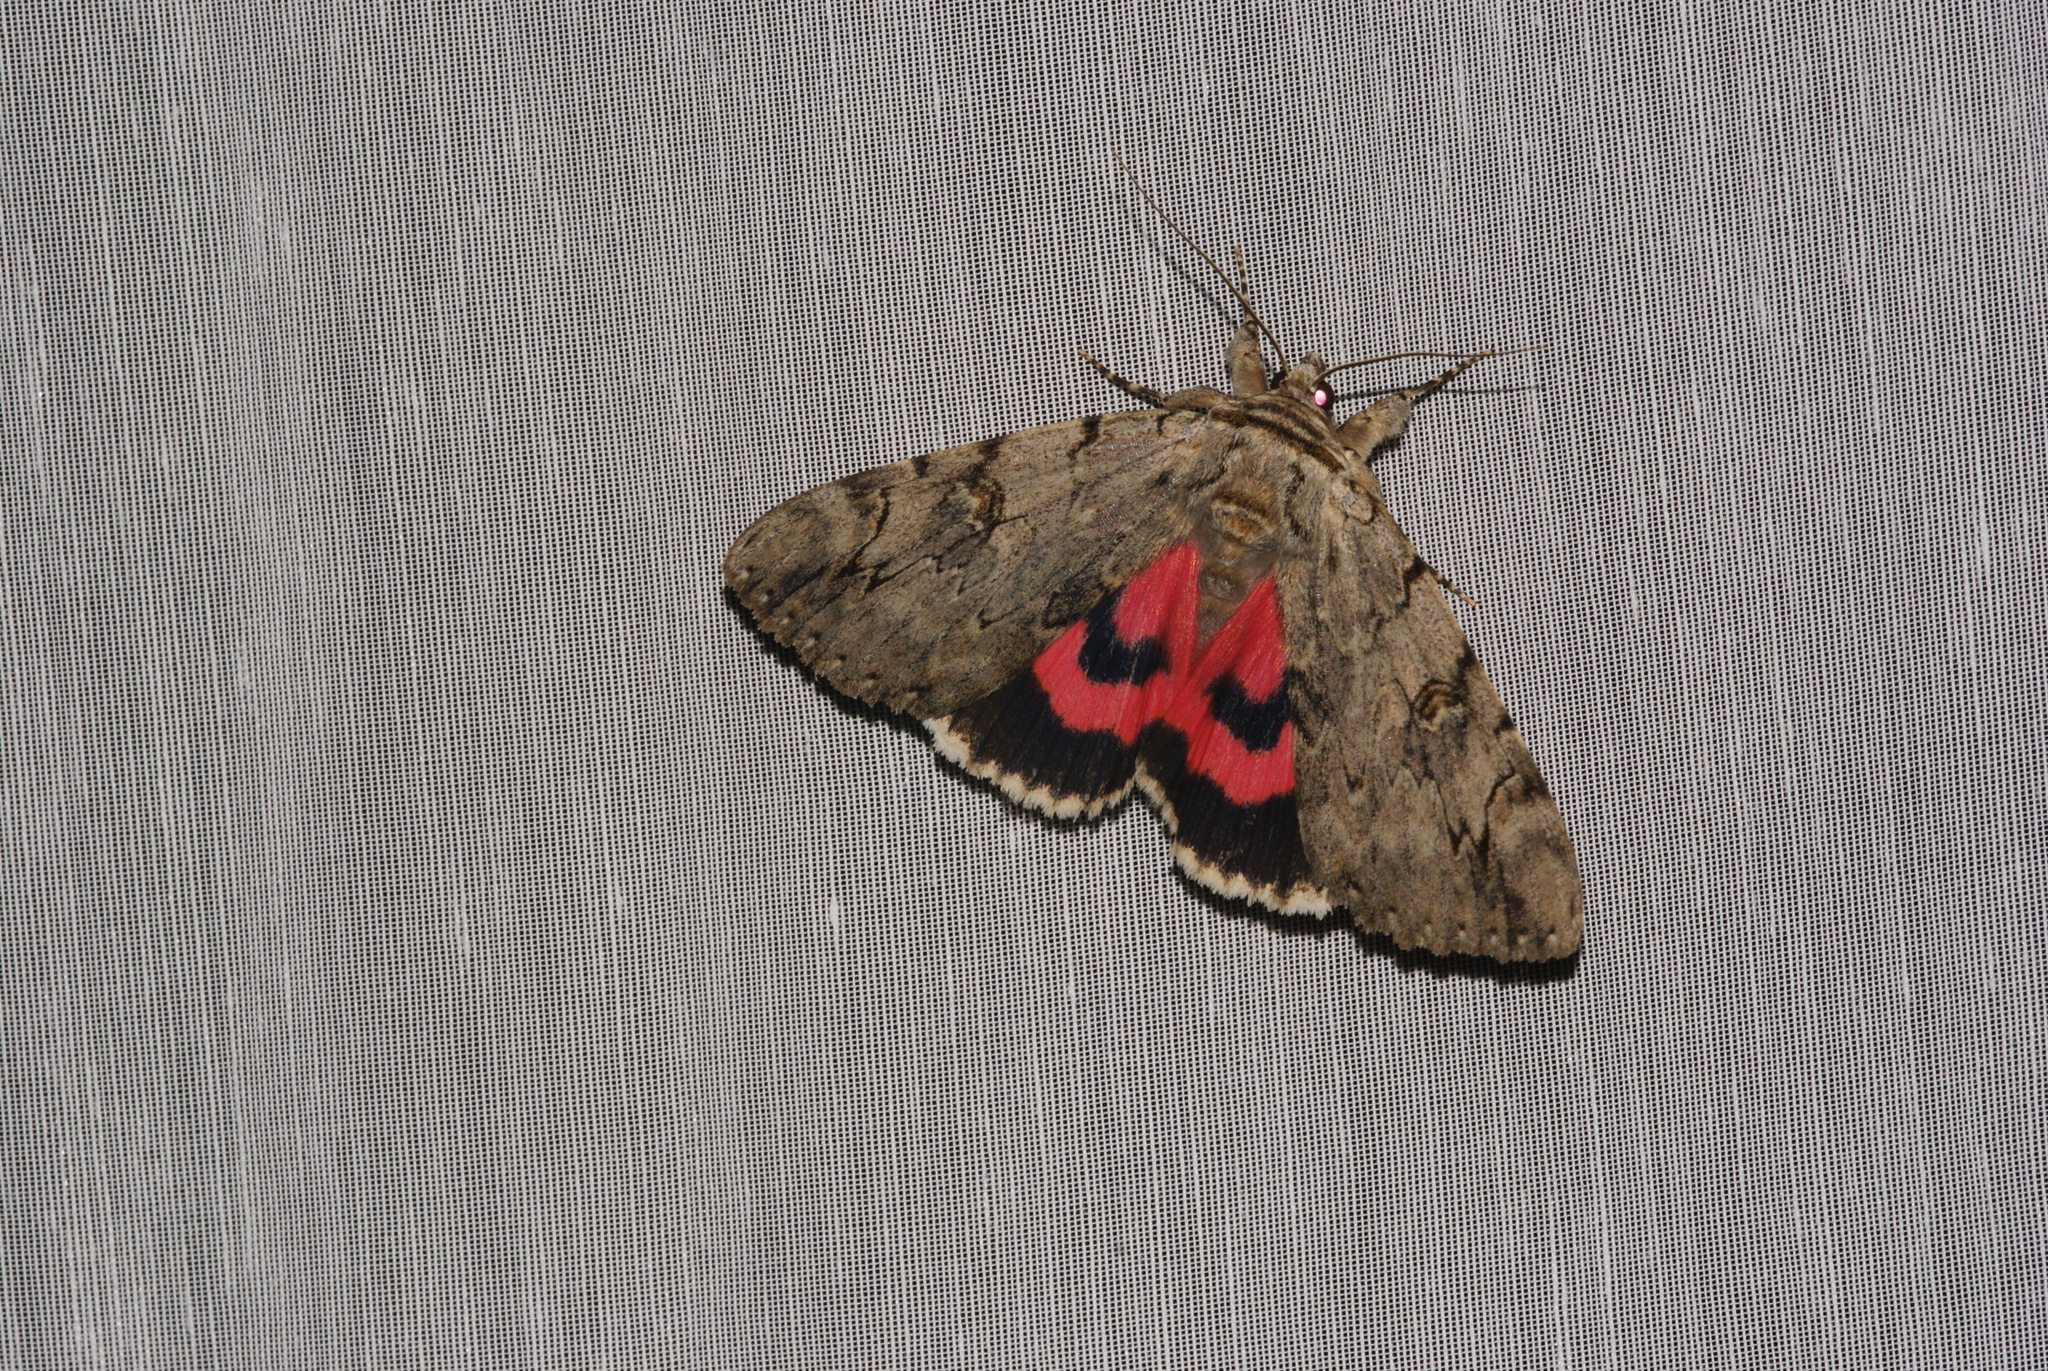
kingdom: Animalia
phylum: Arthropoda
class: Insecta
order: Lepidoptera
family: Erebidae
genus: Catocala
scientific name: Catocala electa
